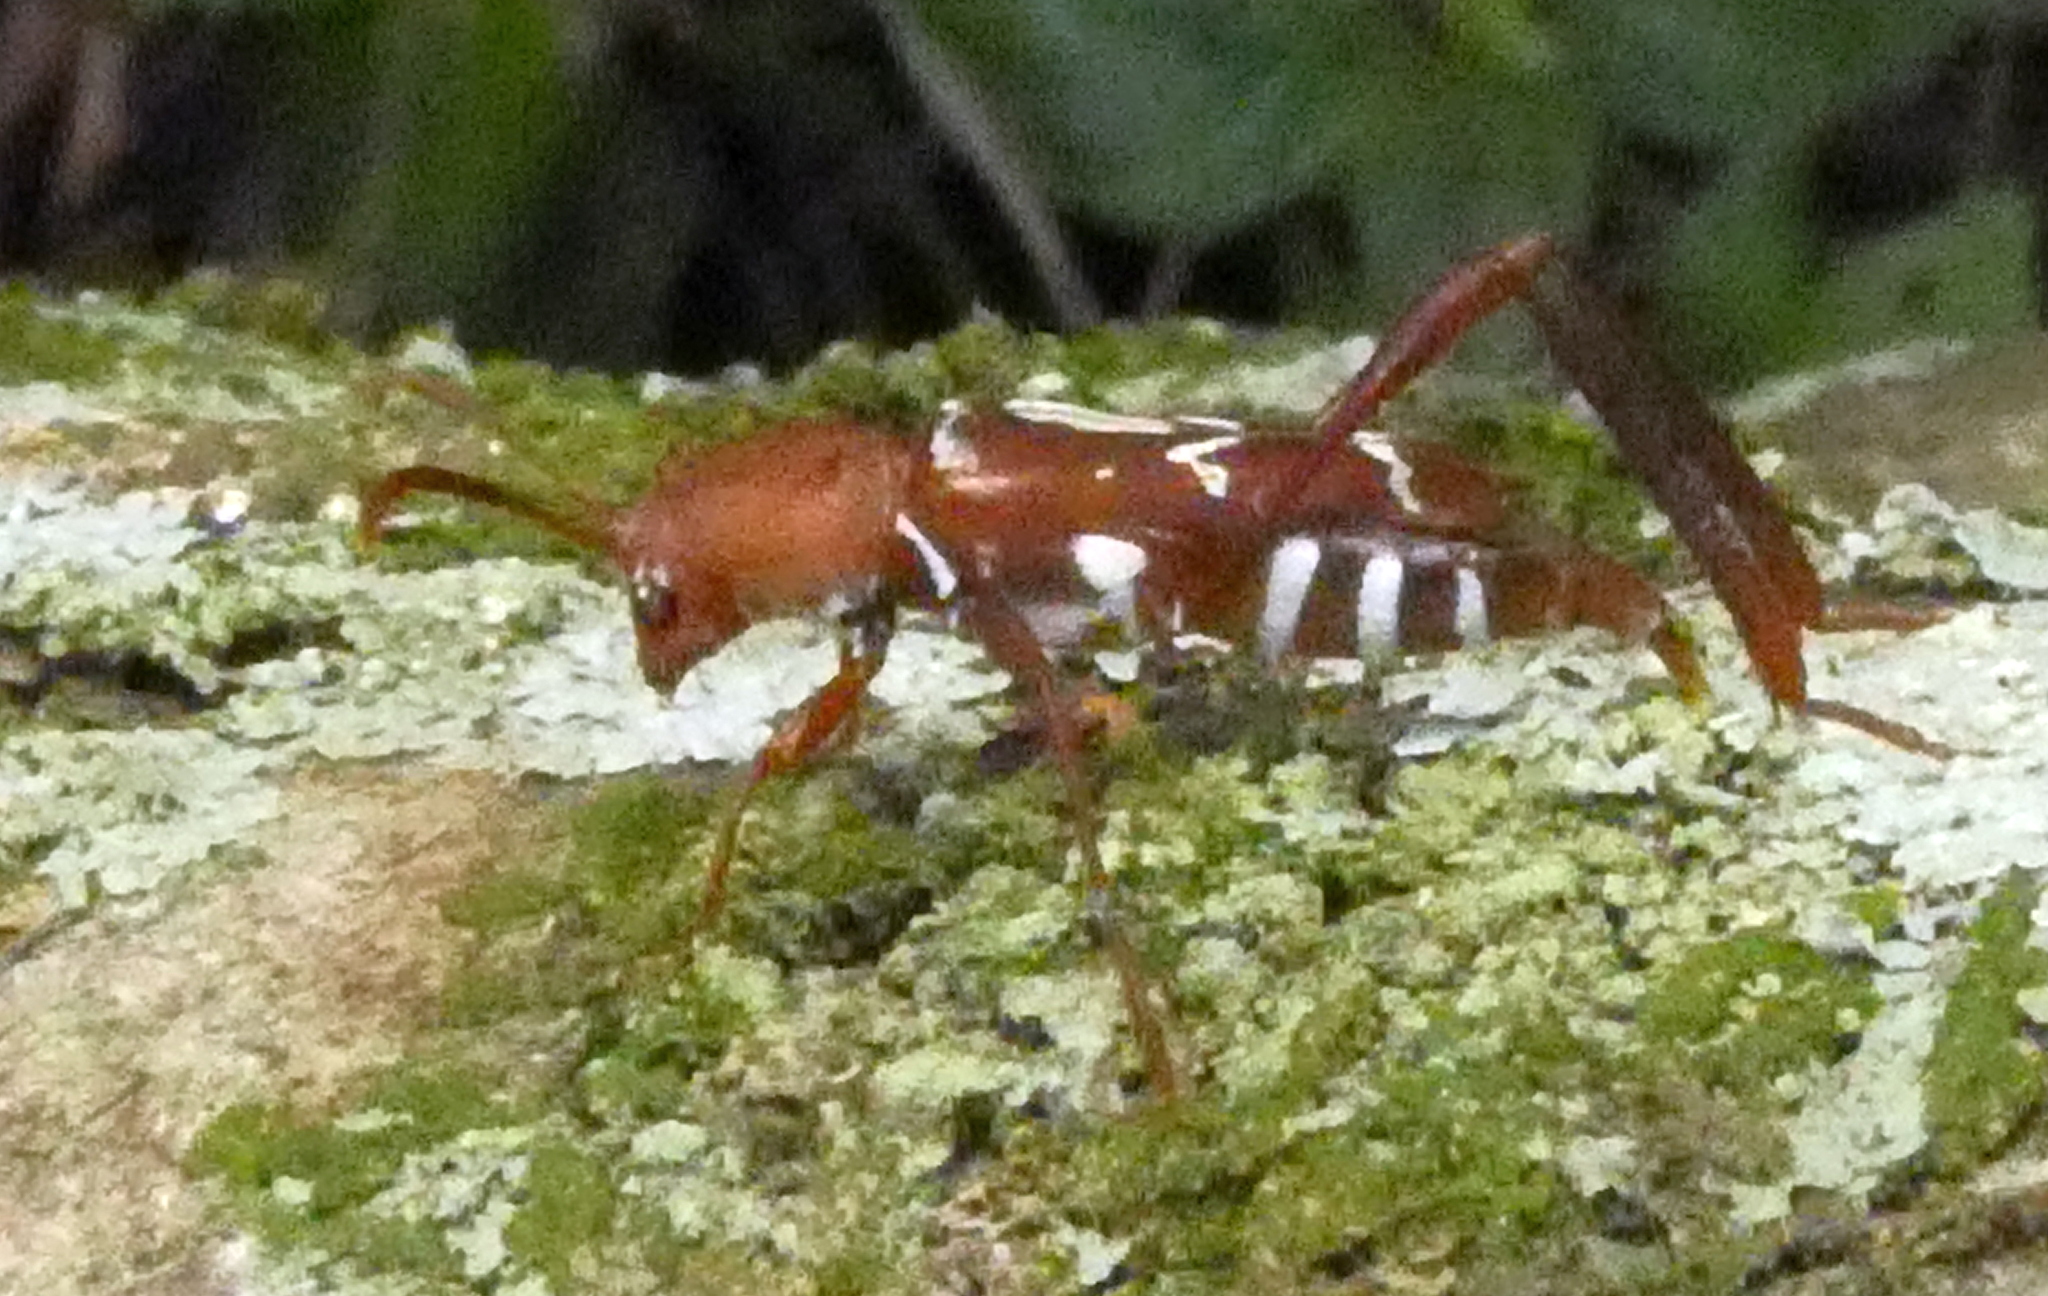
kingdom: Animalia
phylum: Arthropoda
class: Insecta
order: Coleoptera
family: Cerambycidae
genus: Neoclytus
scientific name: Neoclytus rufus
